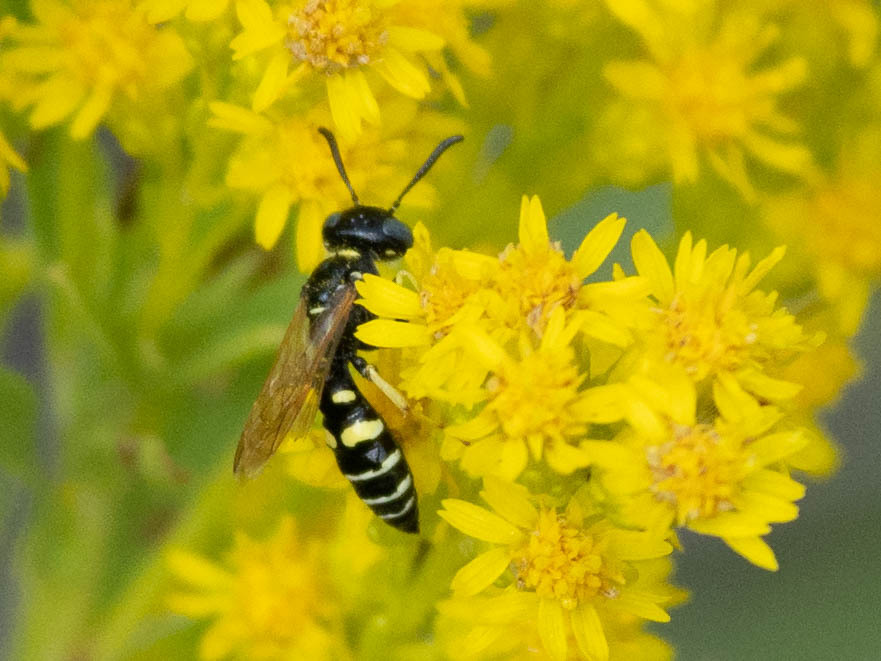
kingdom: Animalia
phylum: Arthropoda
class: Insecta
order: Hymenoptera
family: Crabronidae
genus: Philanthus
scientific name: Philanthus bilunatus
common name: Two moons beewolf
